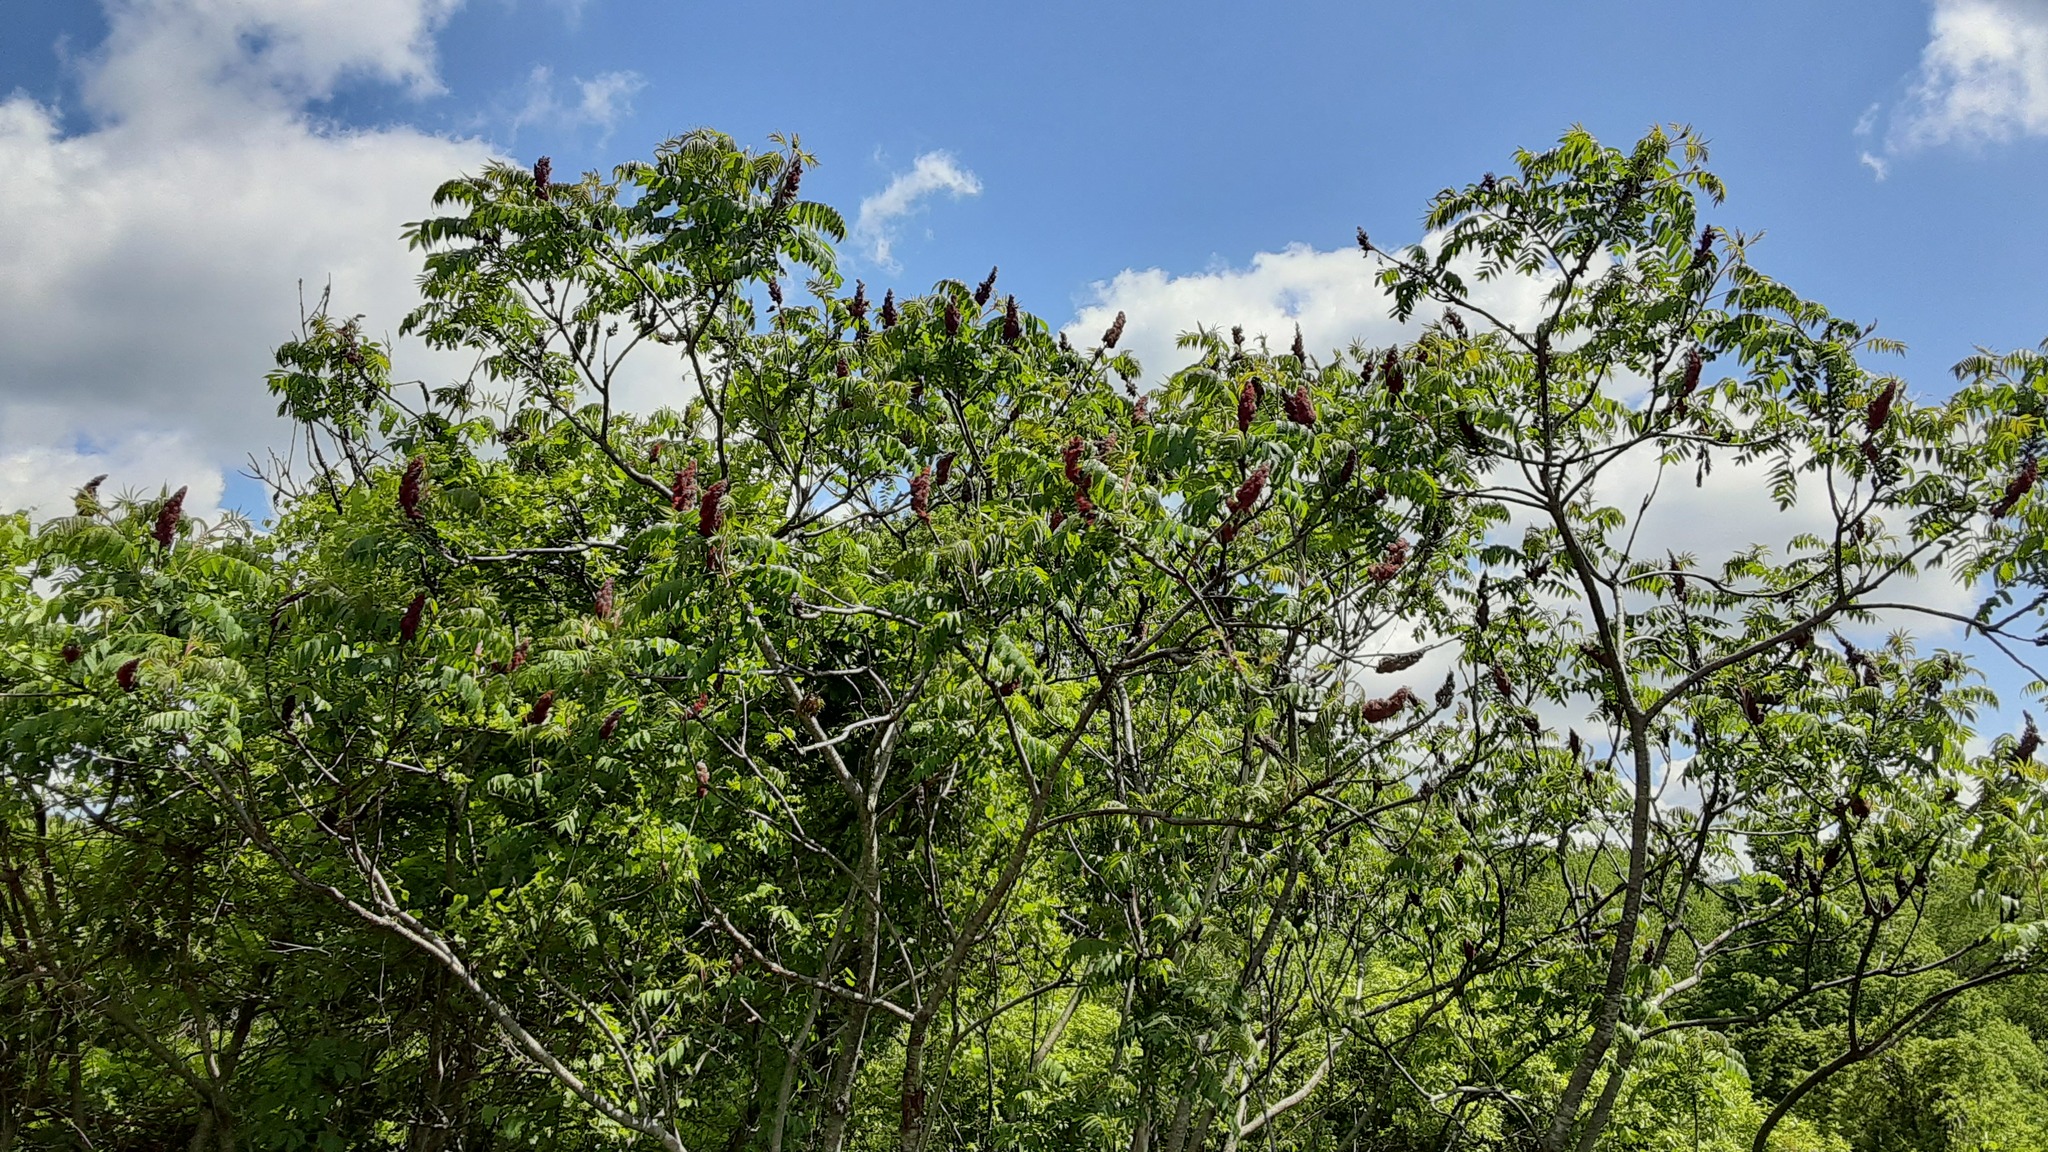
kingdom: Plantae
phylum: Tracheophyta
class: Magnoliopsida
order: Sapindales
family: Anacardiaceae
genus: Rhus
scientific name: Rhus typhina
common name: Staghorn sumac
